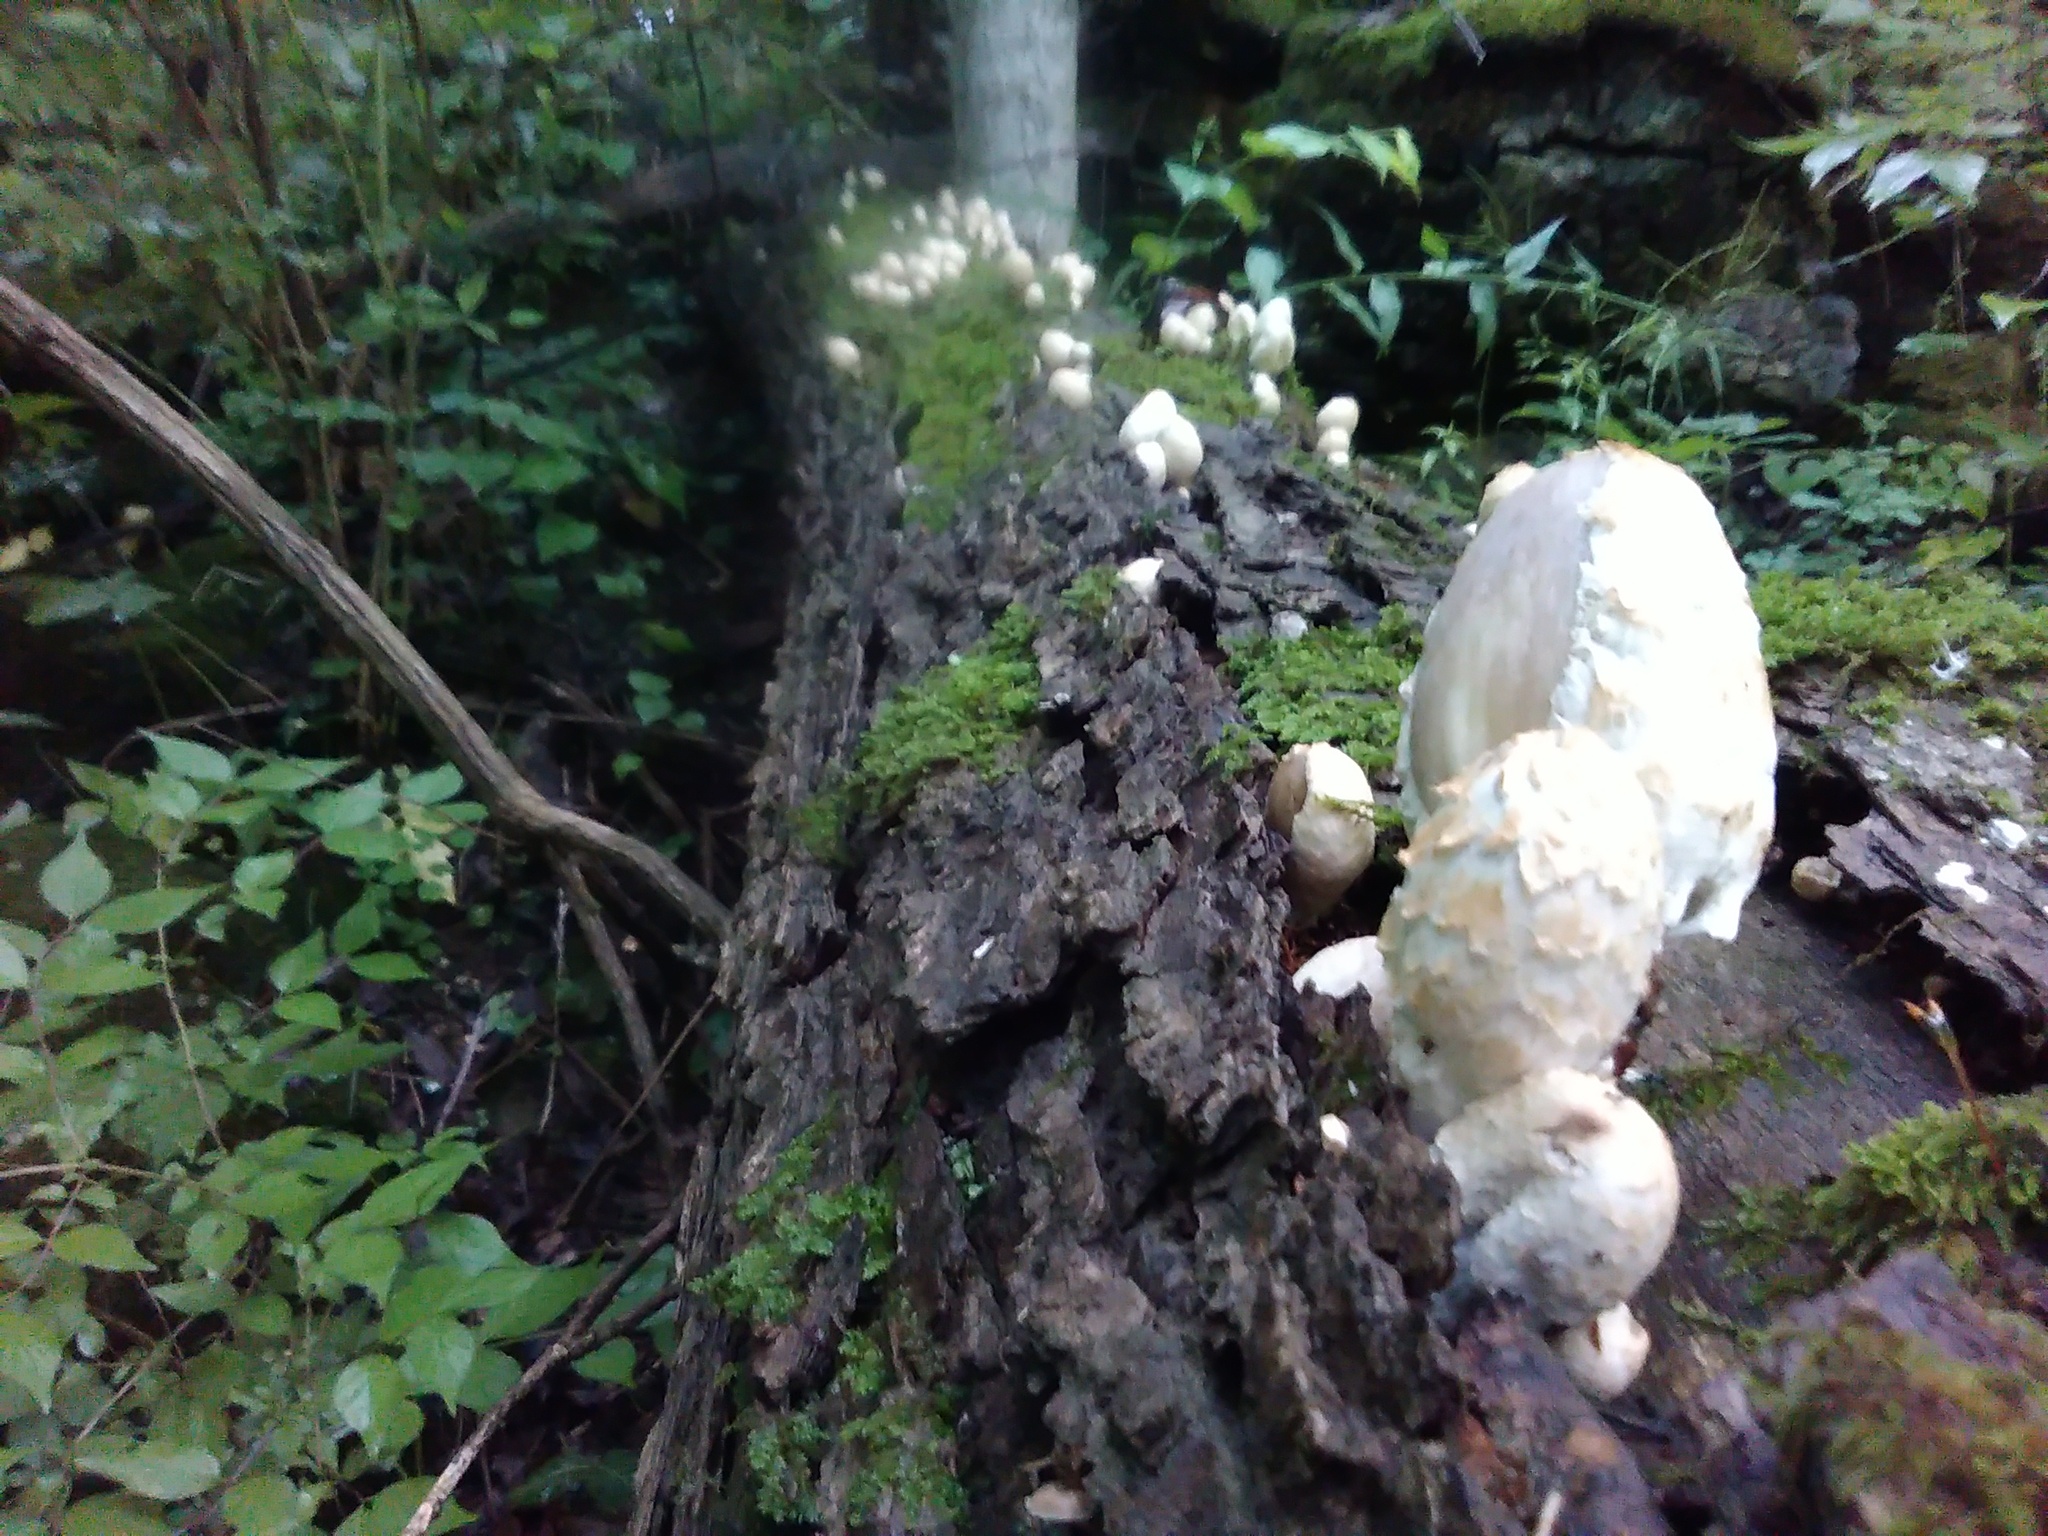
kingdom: Fungi
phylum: Basidiomycota
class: Agaricomycetes
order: Agaricales
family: Psathyrellaceae
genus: Coprinopsis
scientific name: Coprinopsis variegata
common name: Scaly ink cap
